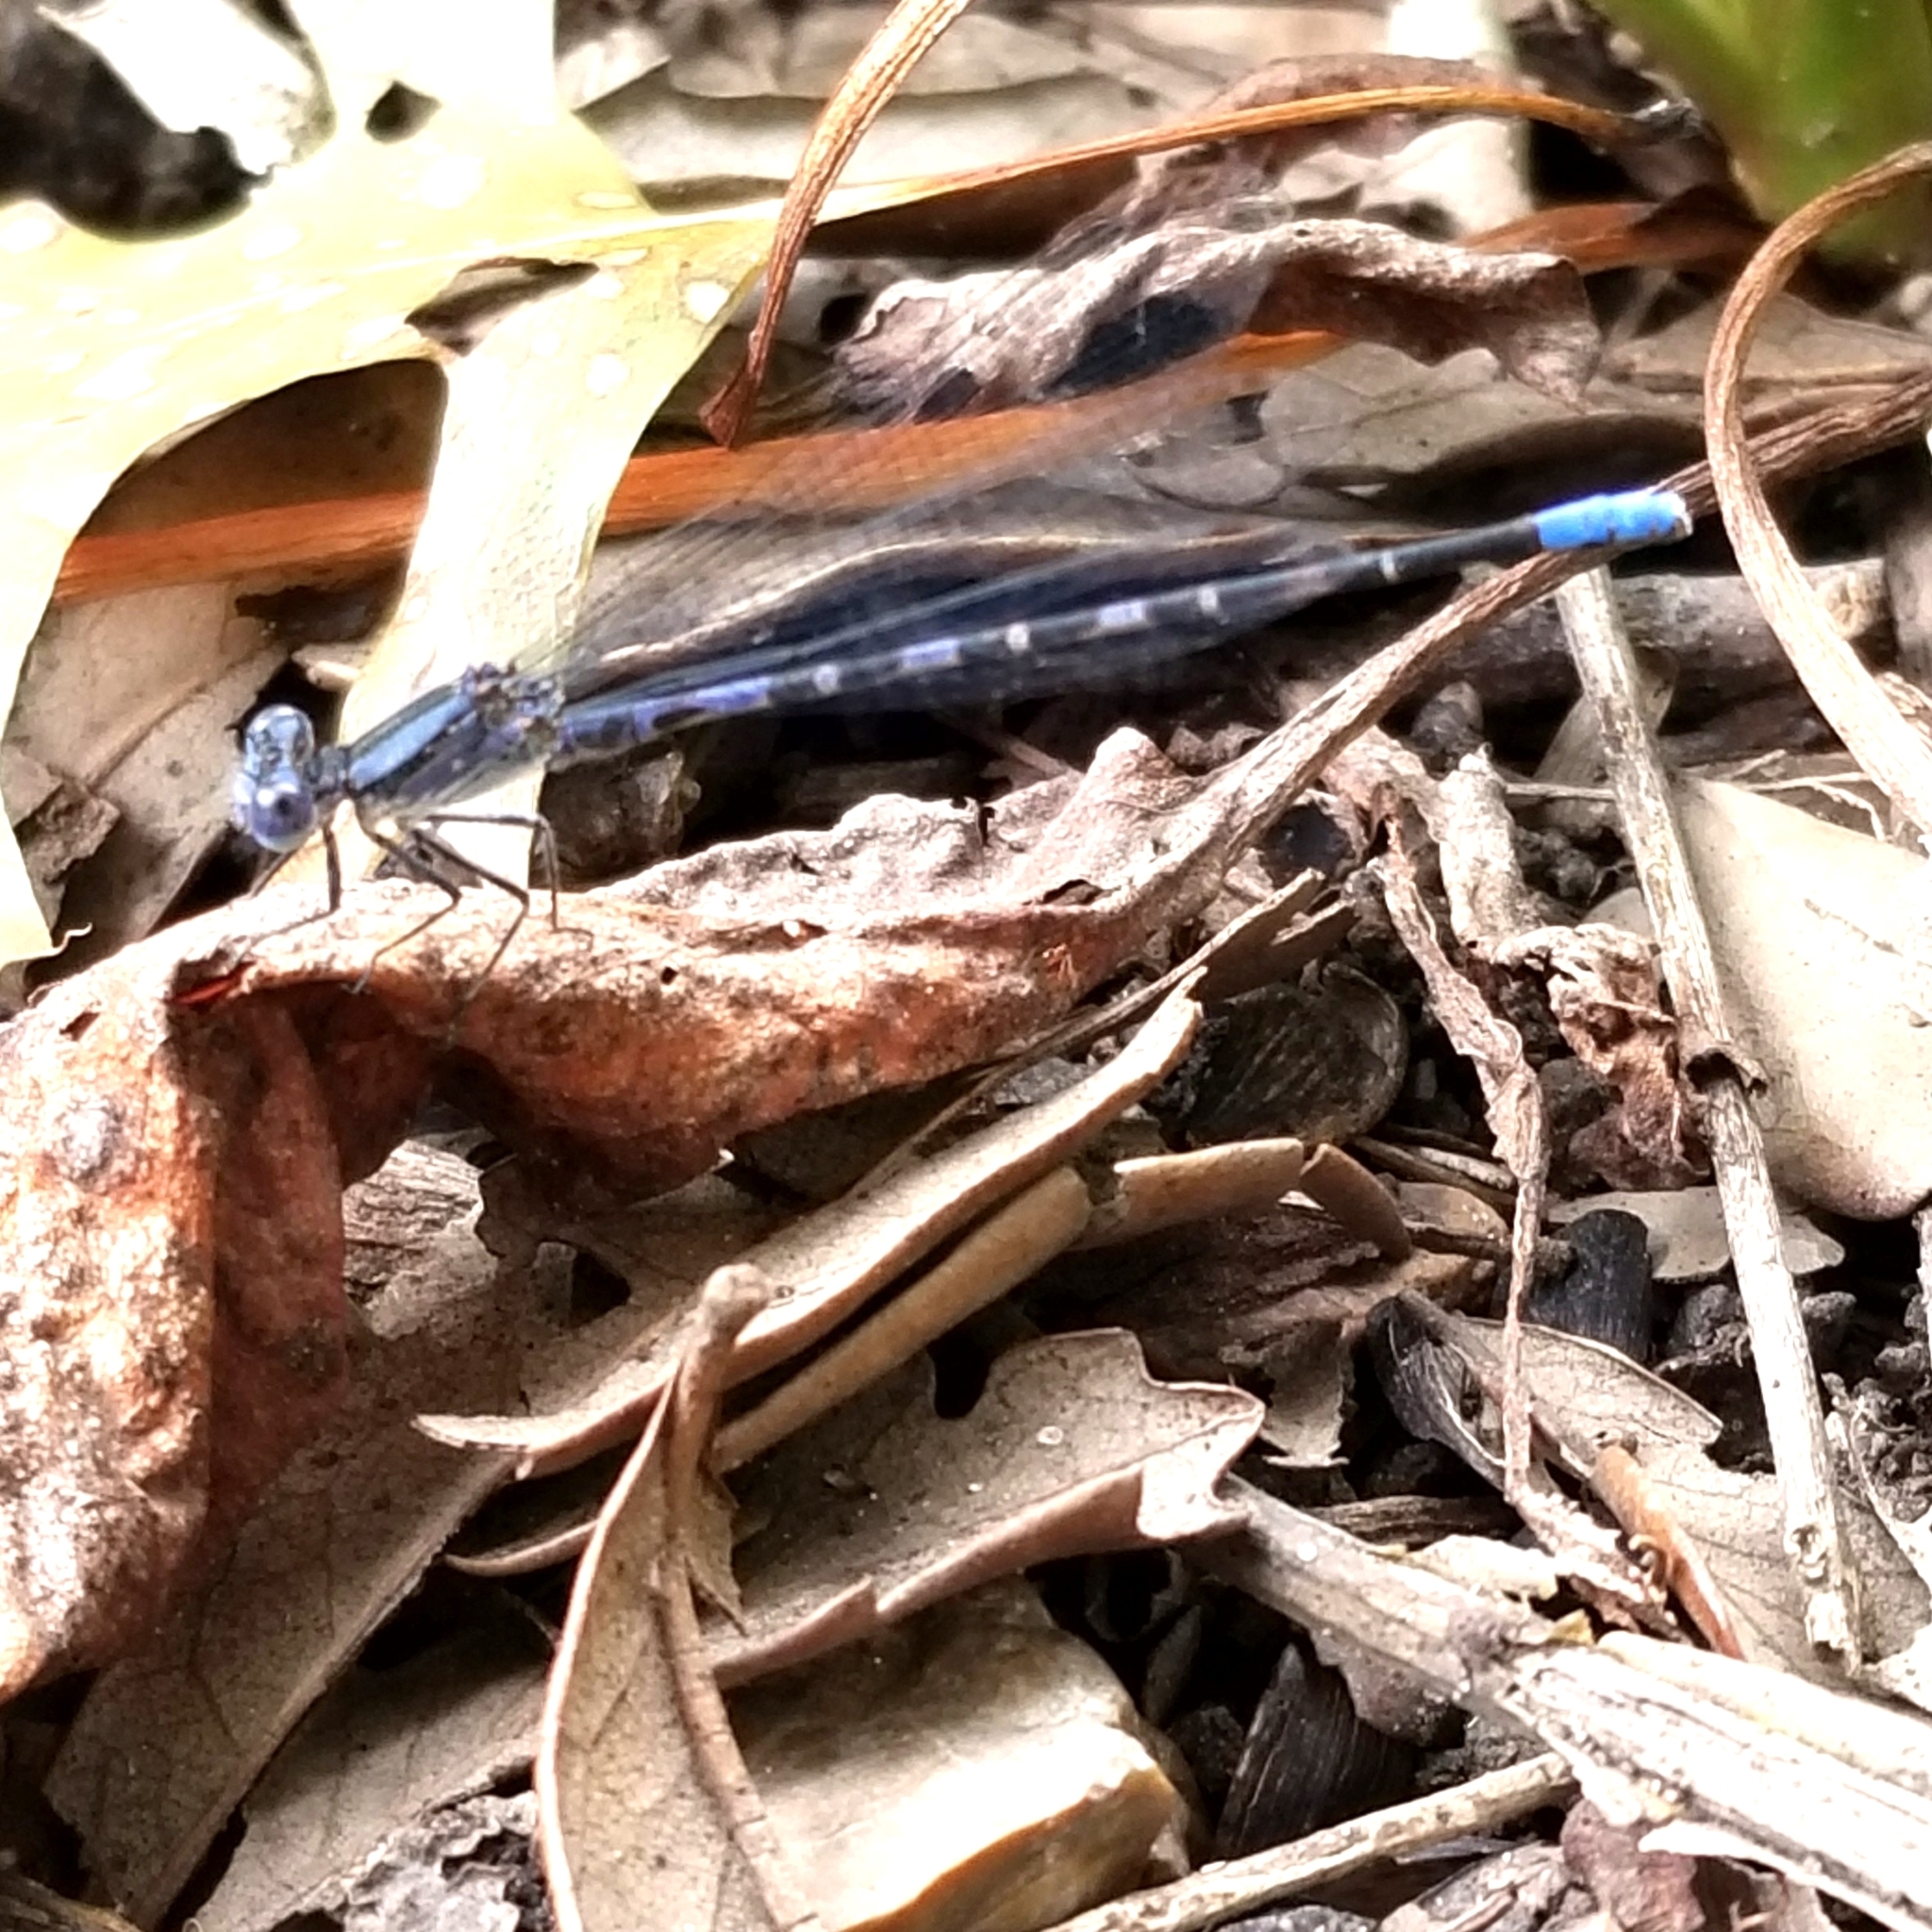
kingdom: Animalia
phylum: Arthropoda
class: Insecta
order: Odonata
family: Coenagrionidae
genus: Argia
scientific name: Argia immunda
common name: Kiowa dancer
